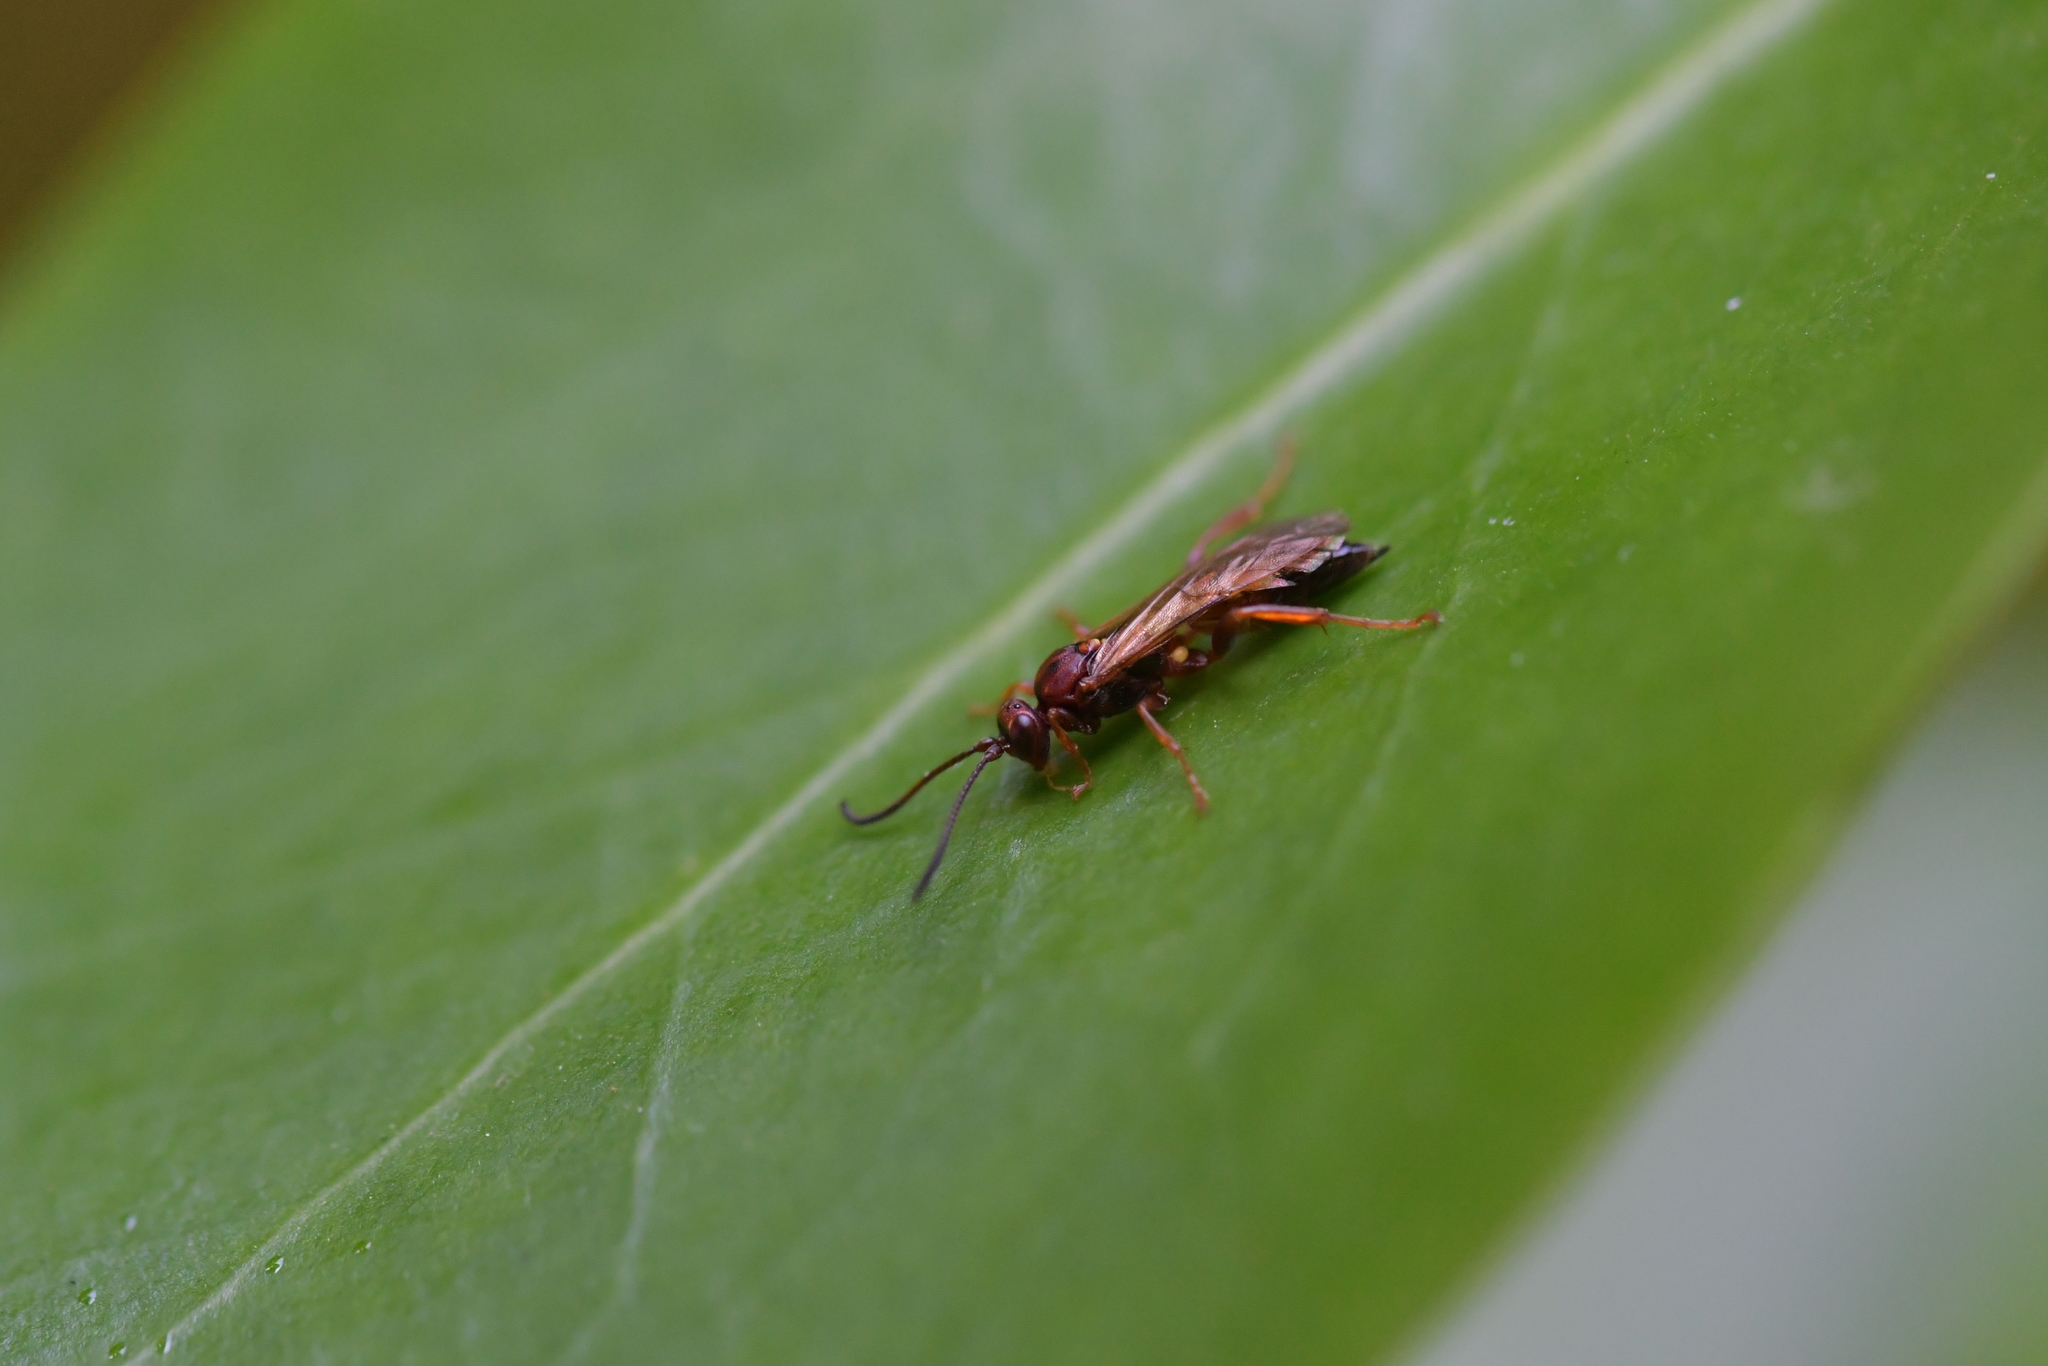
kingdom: Animalia
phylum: Arthropoda
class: Insecta
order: Hymenoptera
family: Ichneumonidae
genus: Aucklandella
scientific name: Aucklandella minuta
